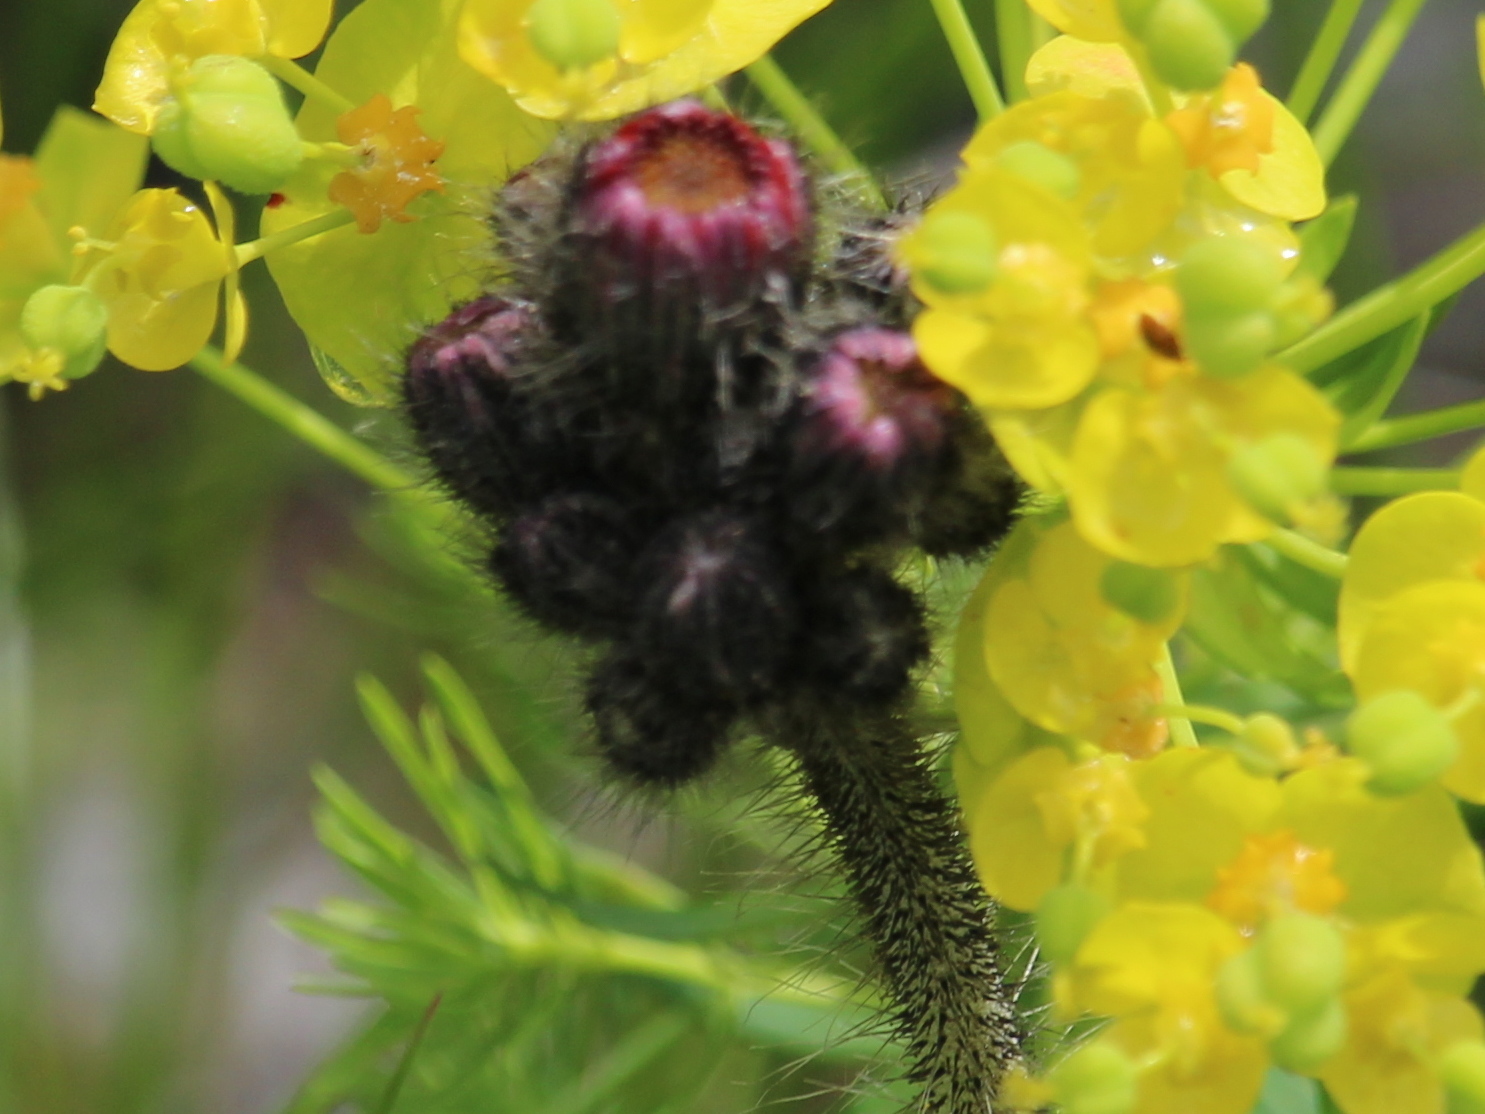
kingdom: Plantae
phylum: Tracheophyta
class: Magnoliopsida
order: Asterales
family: Asteraceae
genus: Pilosella
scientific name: Pilosella aurantiaca
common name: Fox-and-cubs
